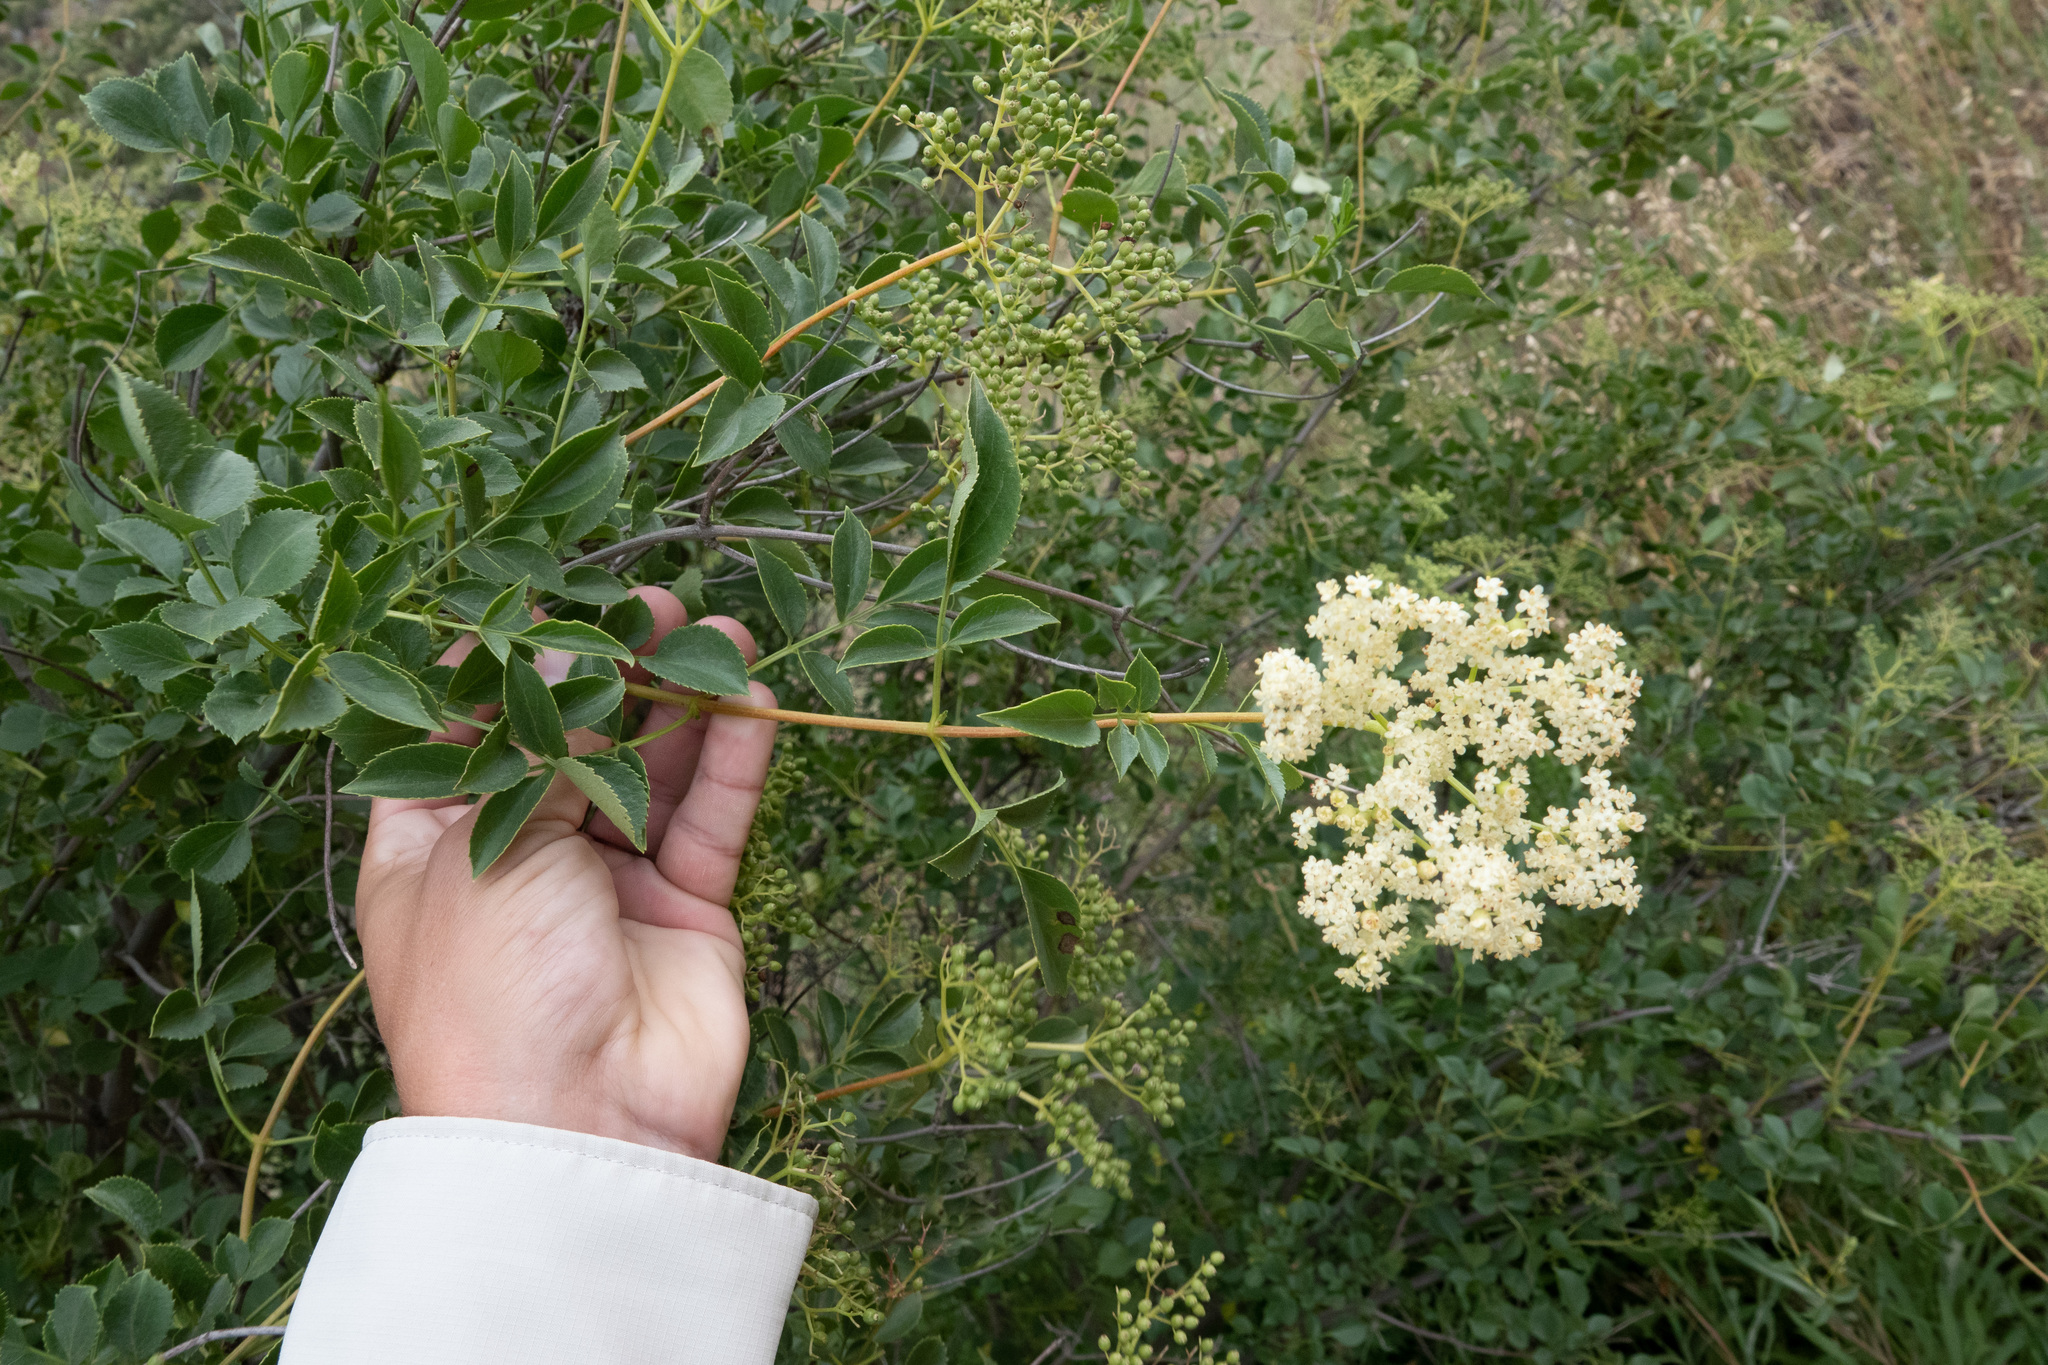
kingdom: Plantae
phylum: Tracheophyta
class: Magnoliopsida
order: Dipsacales
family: Viburnaceae
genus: Sambucus
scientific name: Sambucus cerulea
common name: Blue elder
